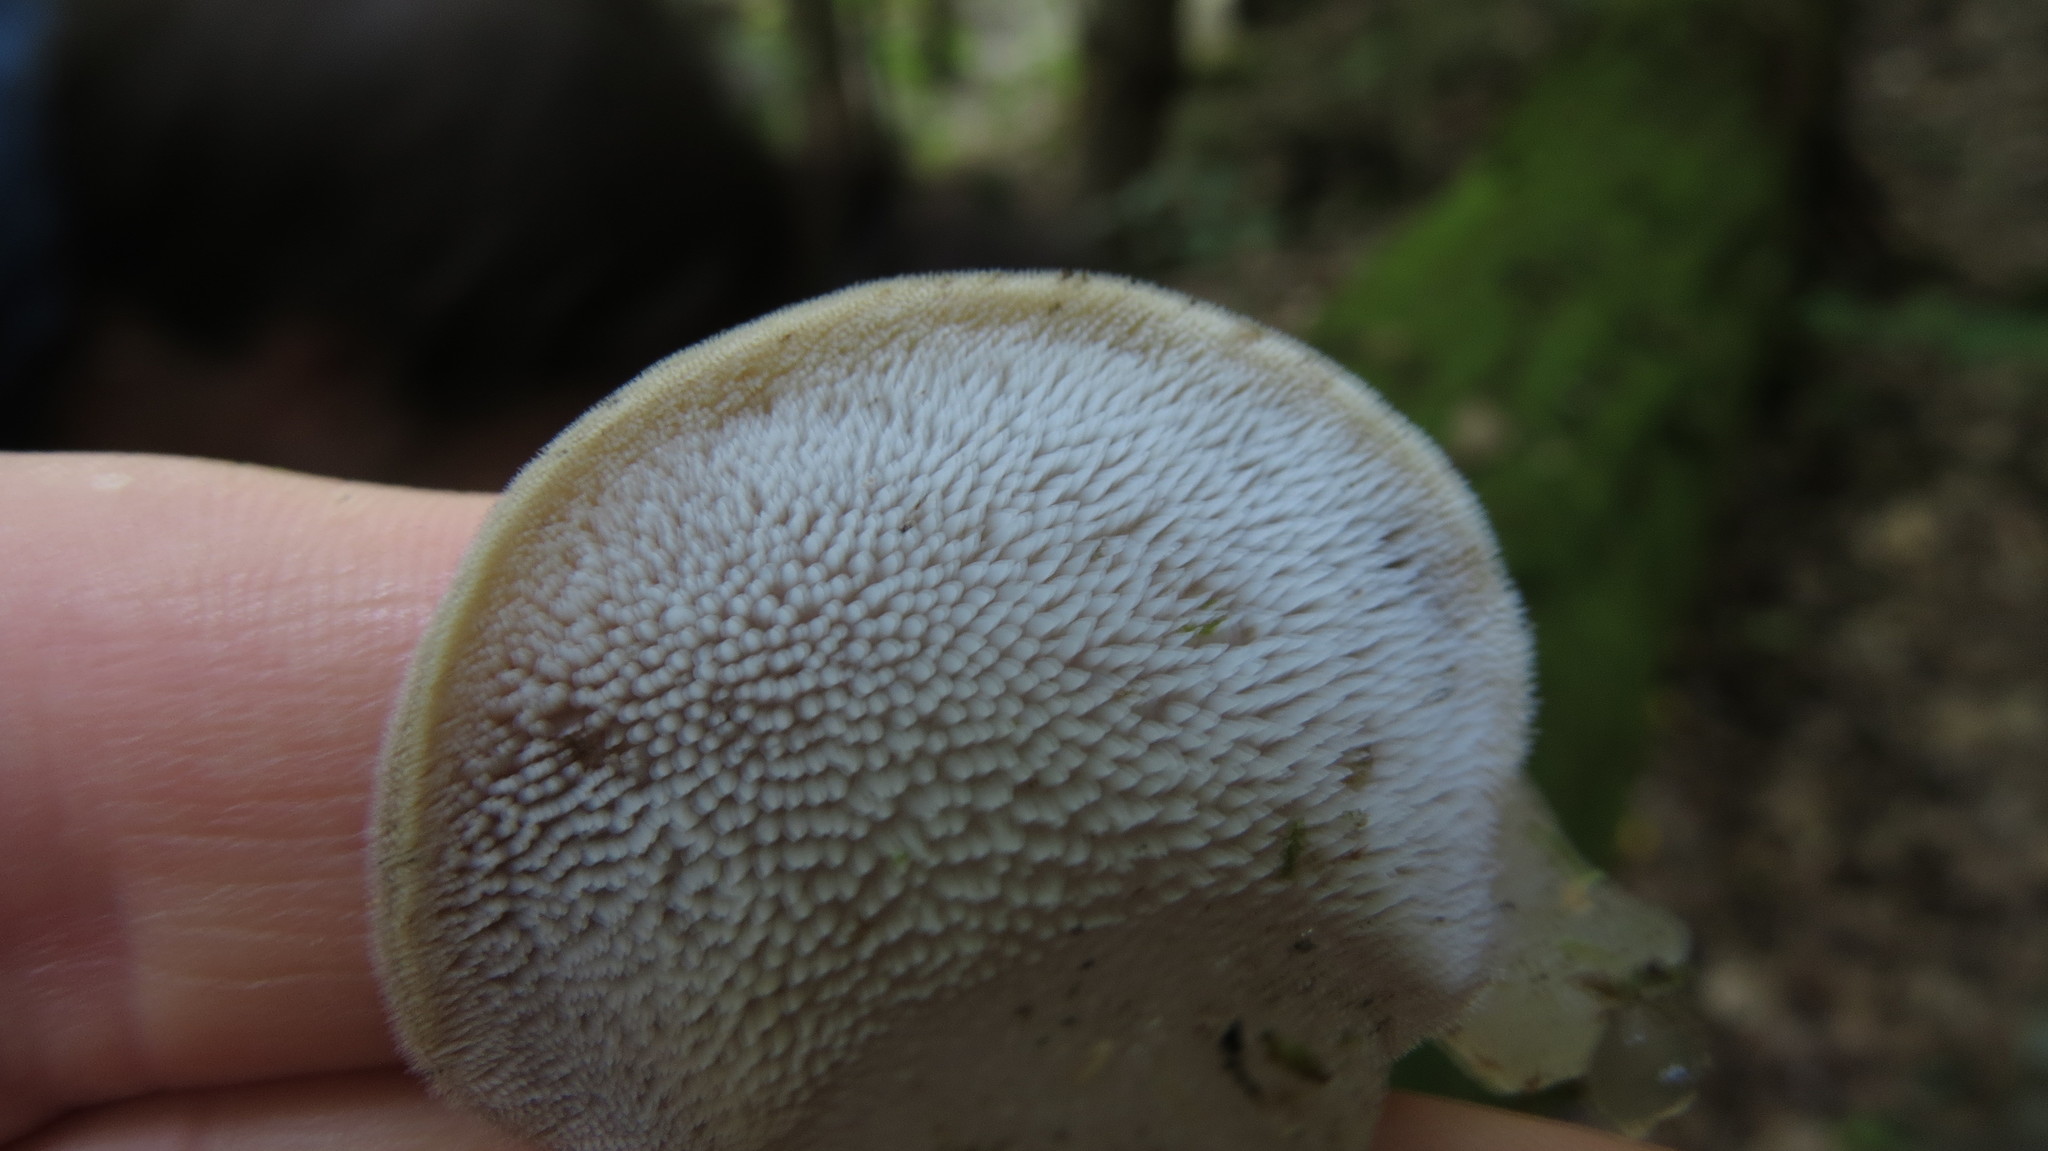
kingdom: Fungi
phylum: Basidiomycota
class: Agaricomycetes
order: Auriculariales
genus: Pseudohydnum
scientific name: Pseudohydnum gelatinosum
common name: Jelly tongue
